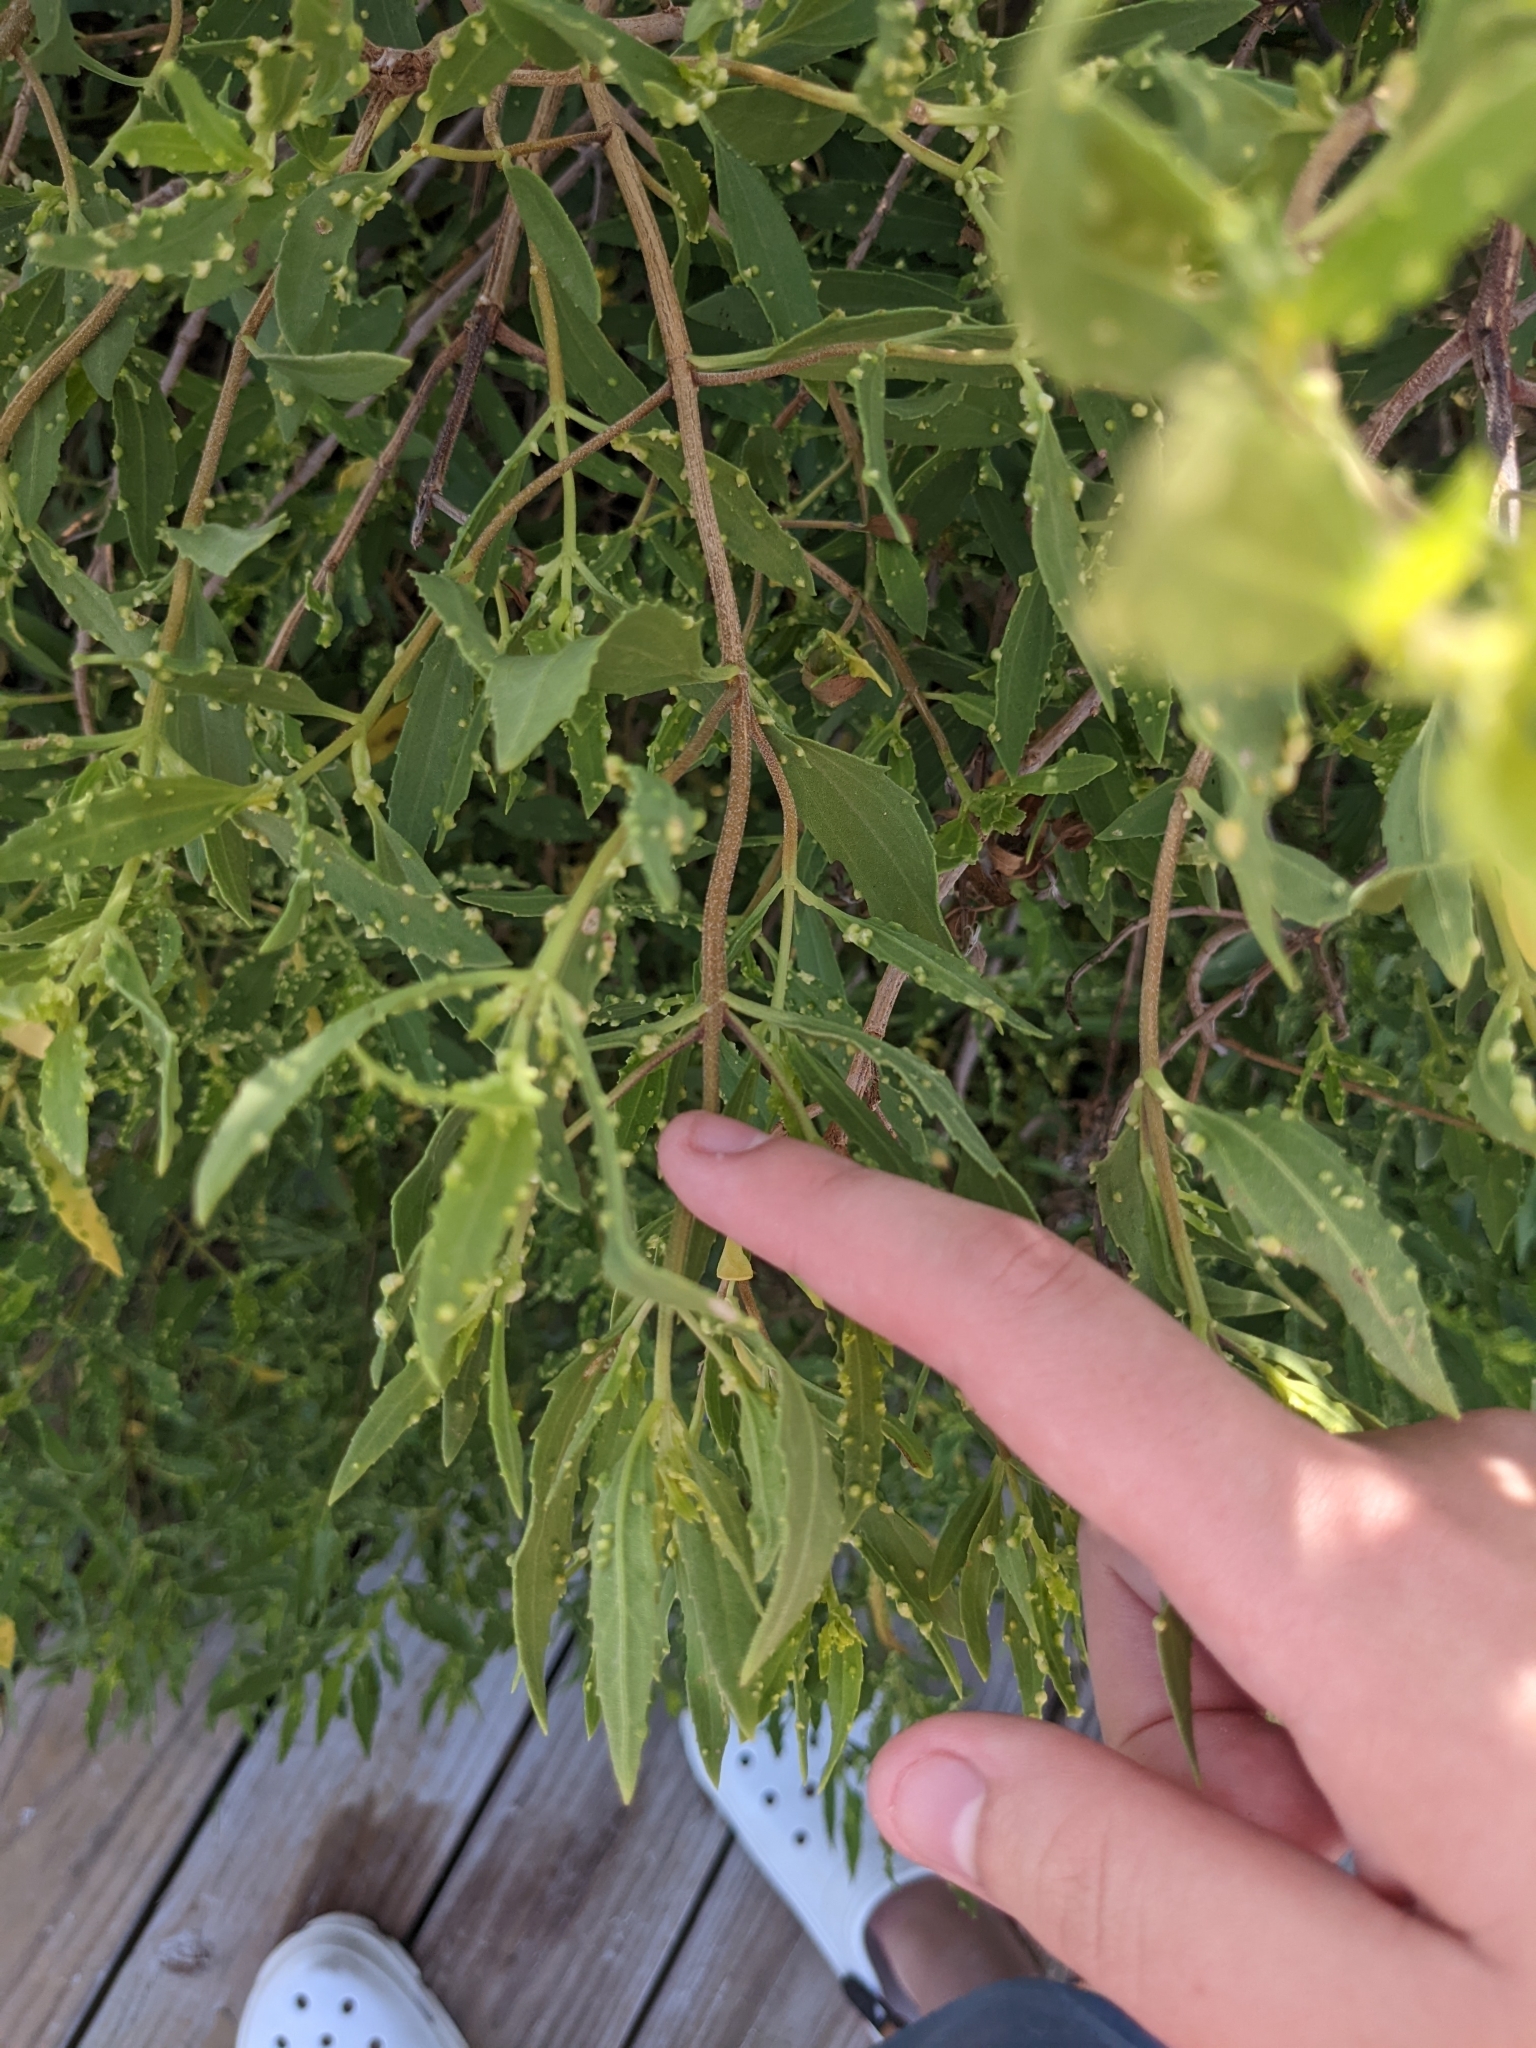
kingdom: Plantae
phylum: Tracheophyta
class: Magnoliopsida
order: Asterales
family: Asteraceae
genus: Iva
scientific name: Iva frutescens
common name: Big-leaved marsh-elder
